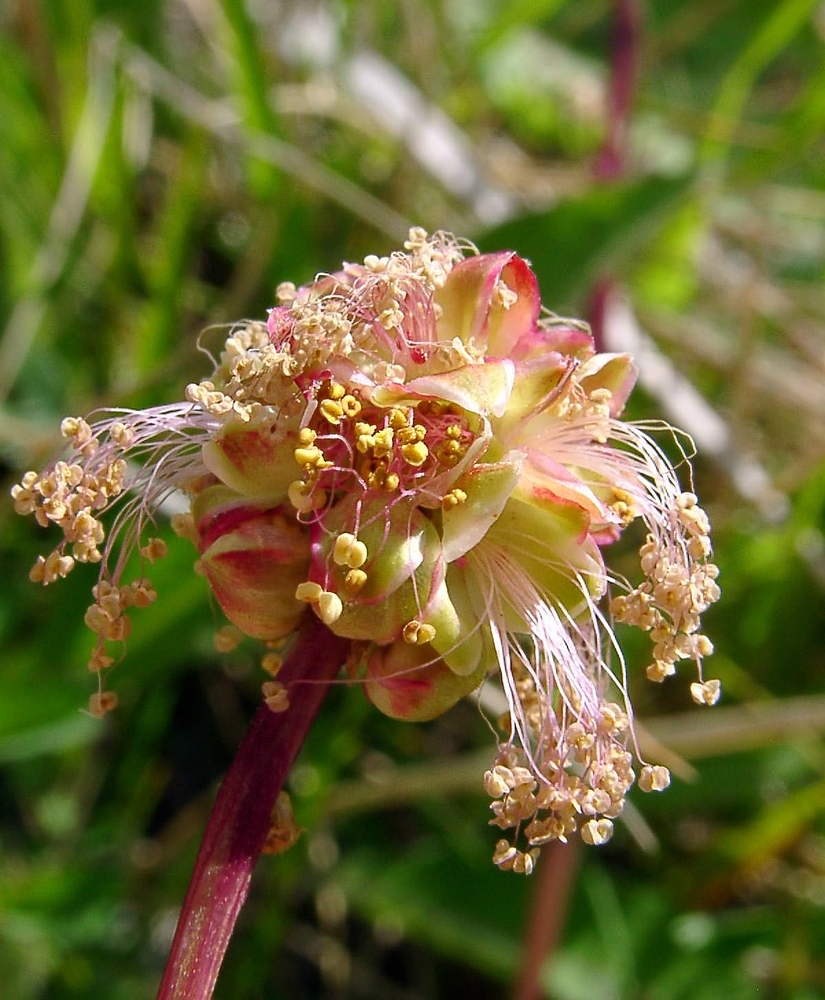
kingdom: Plantae
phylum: Tracheophyta
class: Magnoliopsida
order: Rosales
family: Rosaceae
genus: Poterium
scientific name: Poterium sanguisorba
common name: Salad burnet
